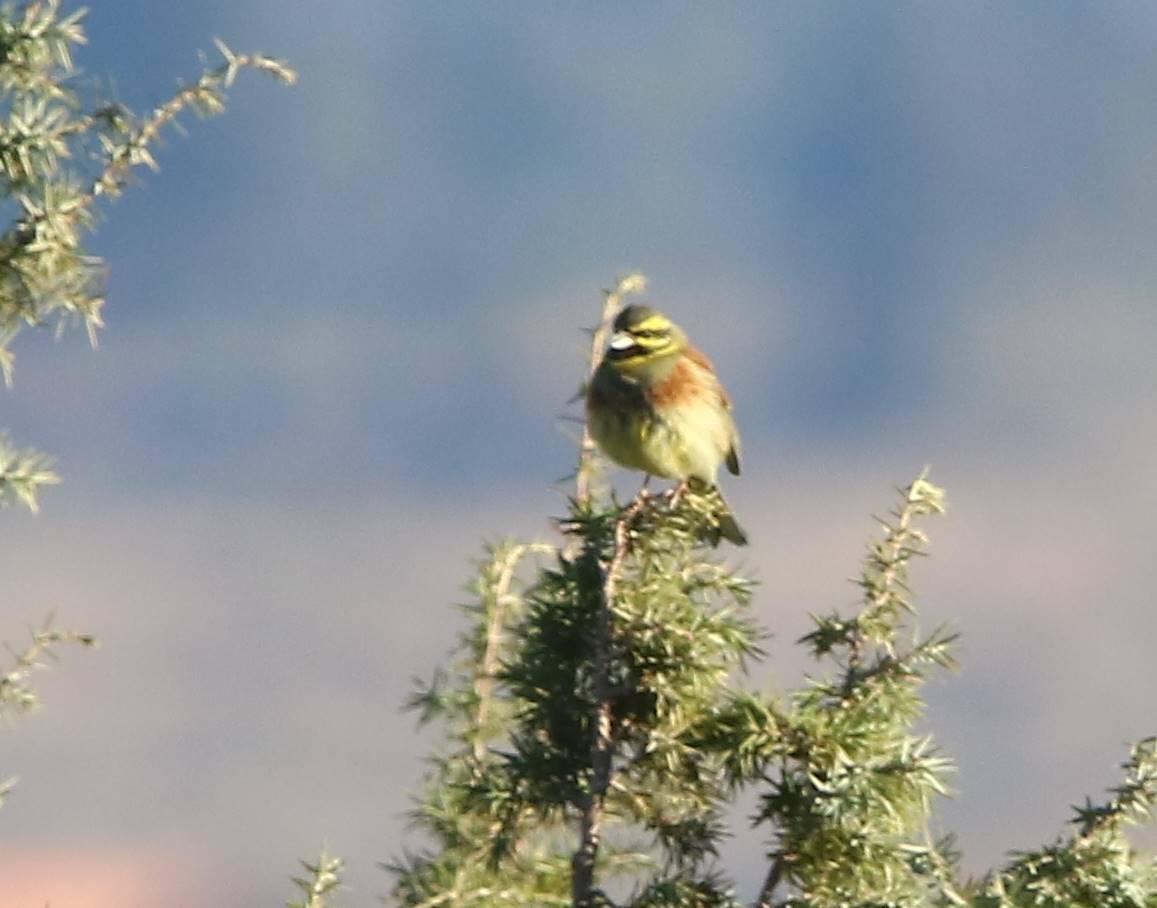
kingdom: Animalia
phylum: Chordata
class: Aves
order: Passeriformes
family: Emberizidae
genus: Emberiza
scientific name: Emberiza cirlus
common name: Cirl bunting
